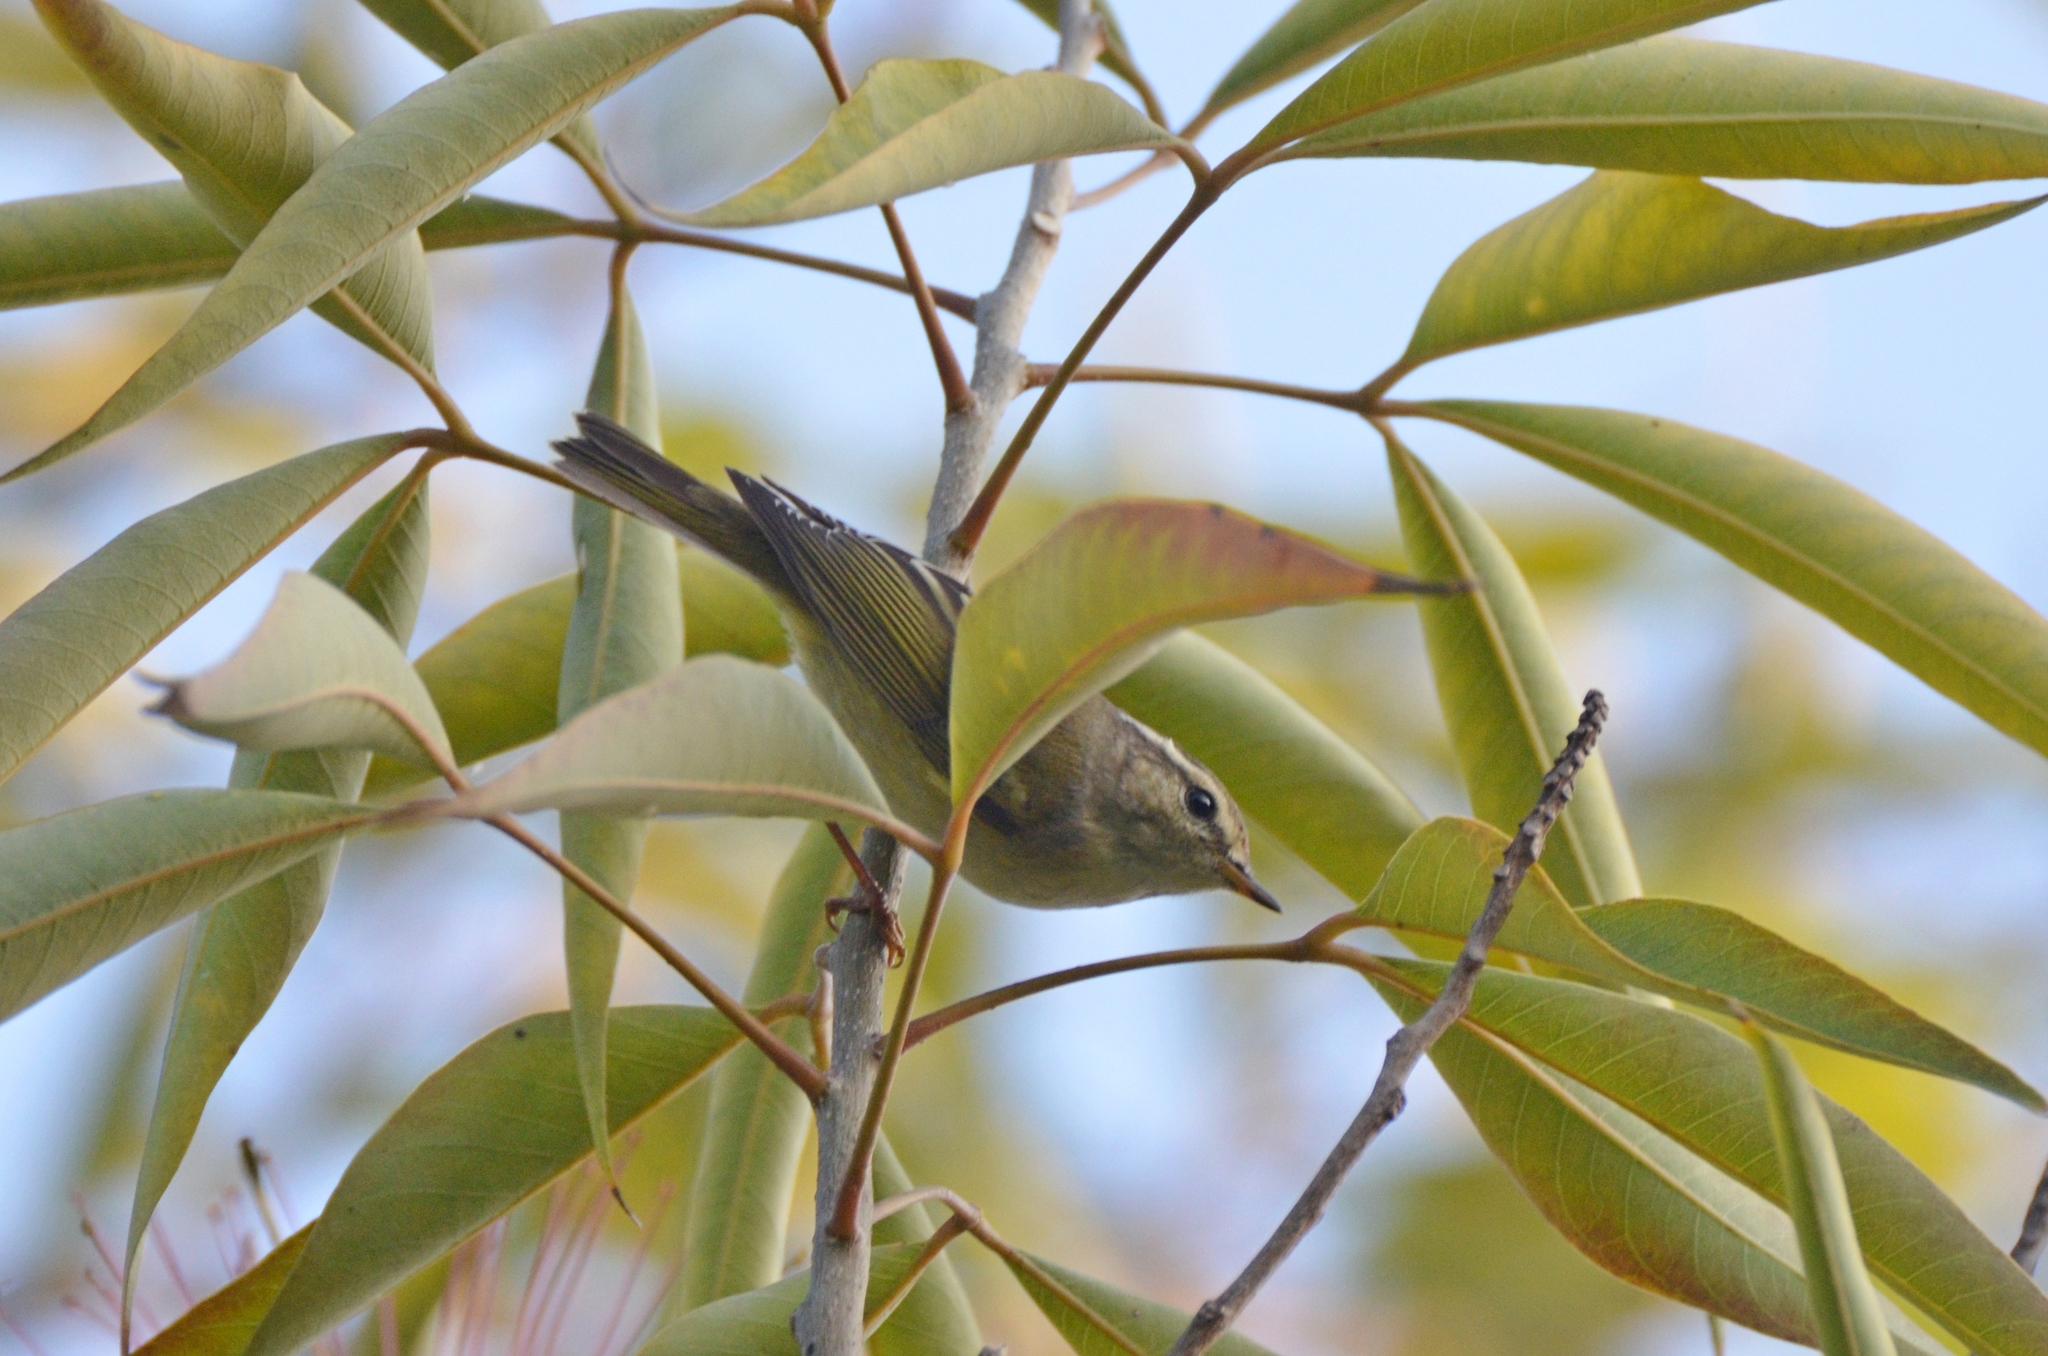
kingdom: Animalia
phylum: Chordata
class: Aves
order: Passeriformes
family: Phylloscopidae
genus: Phylloscopus
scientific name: Phylloscopus inornatus
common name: Yellow-browed warbler
